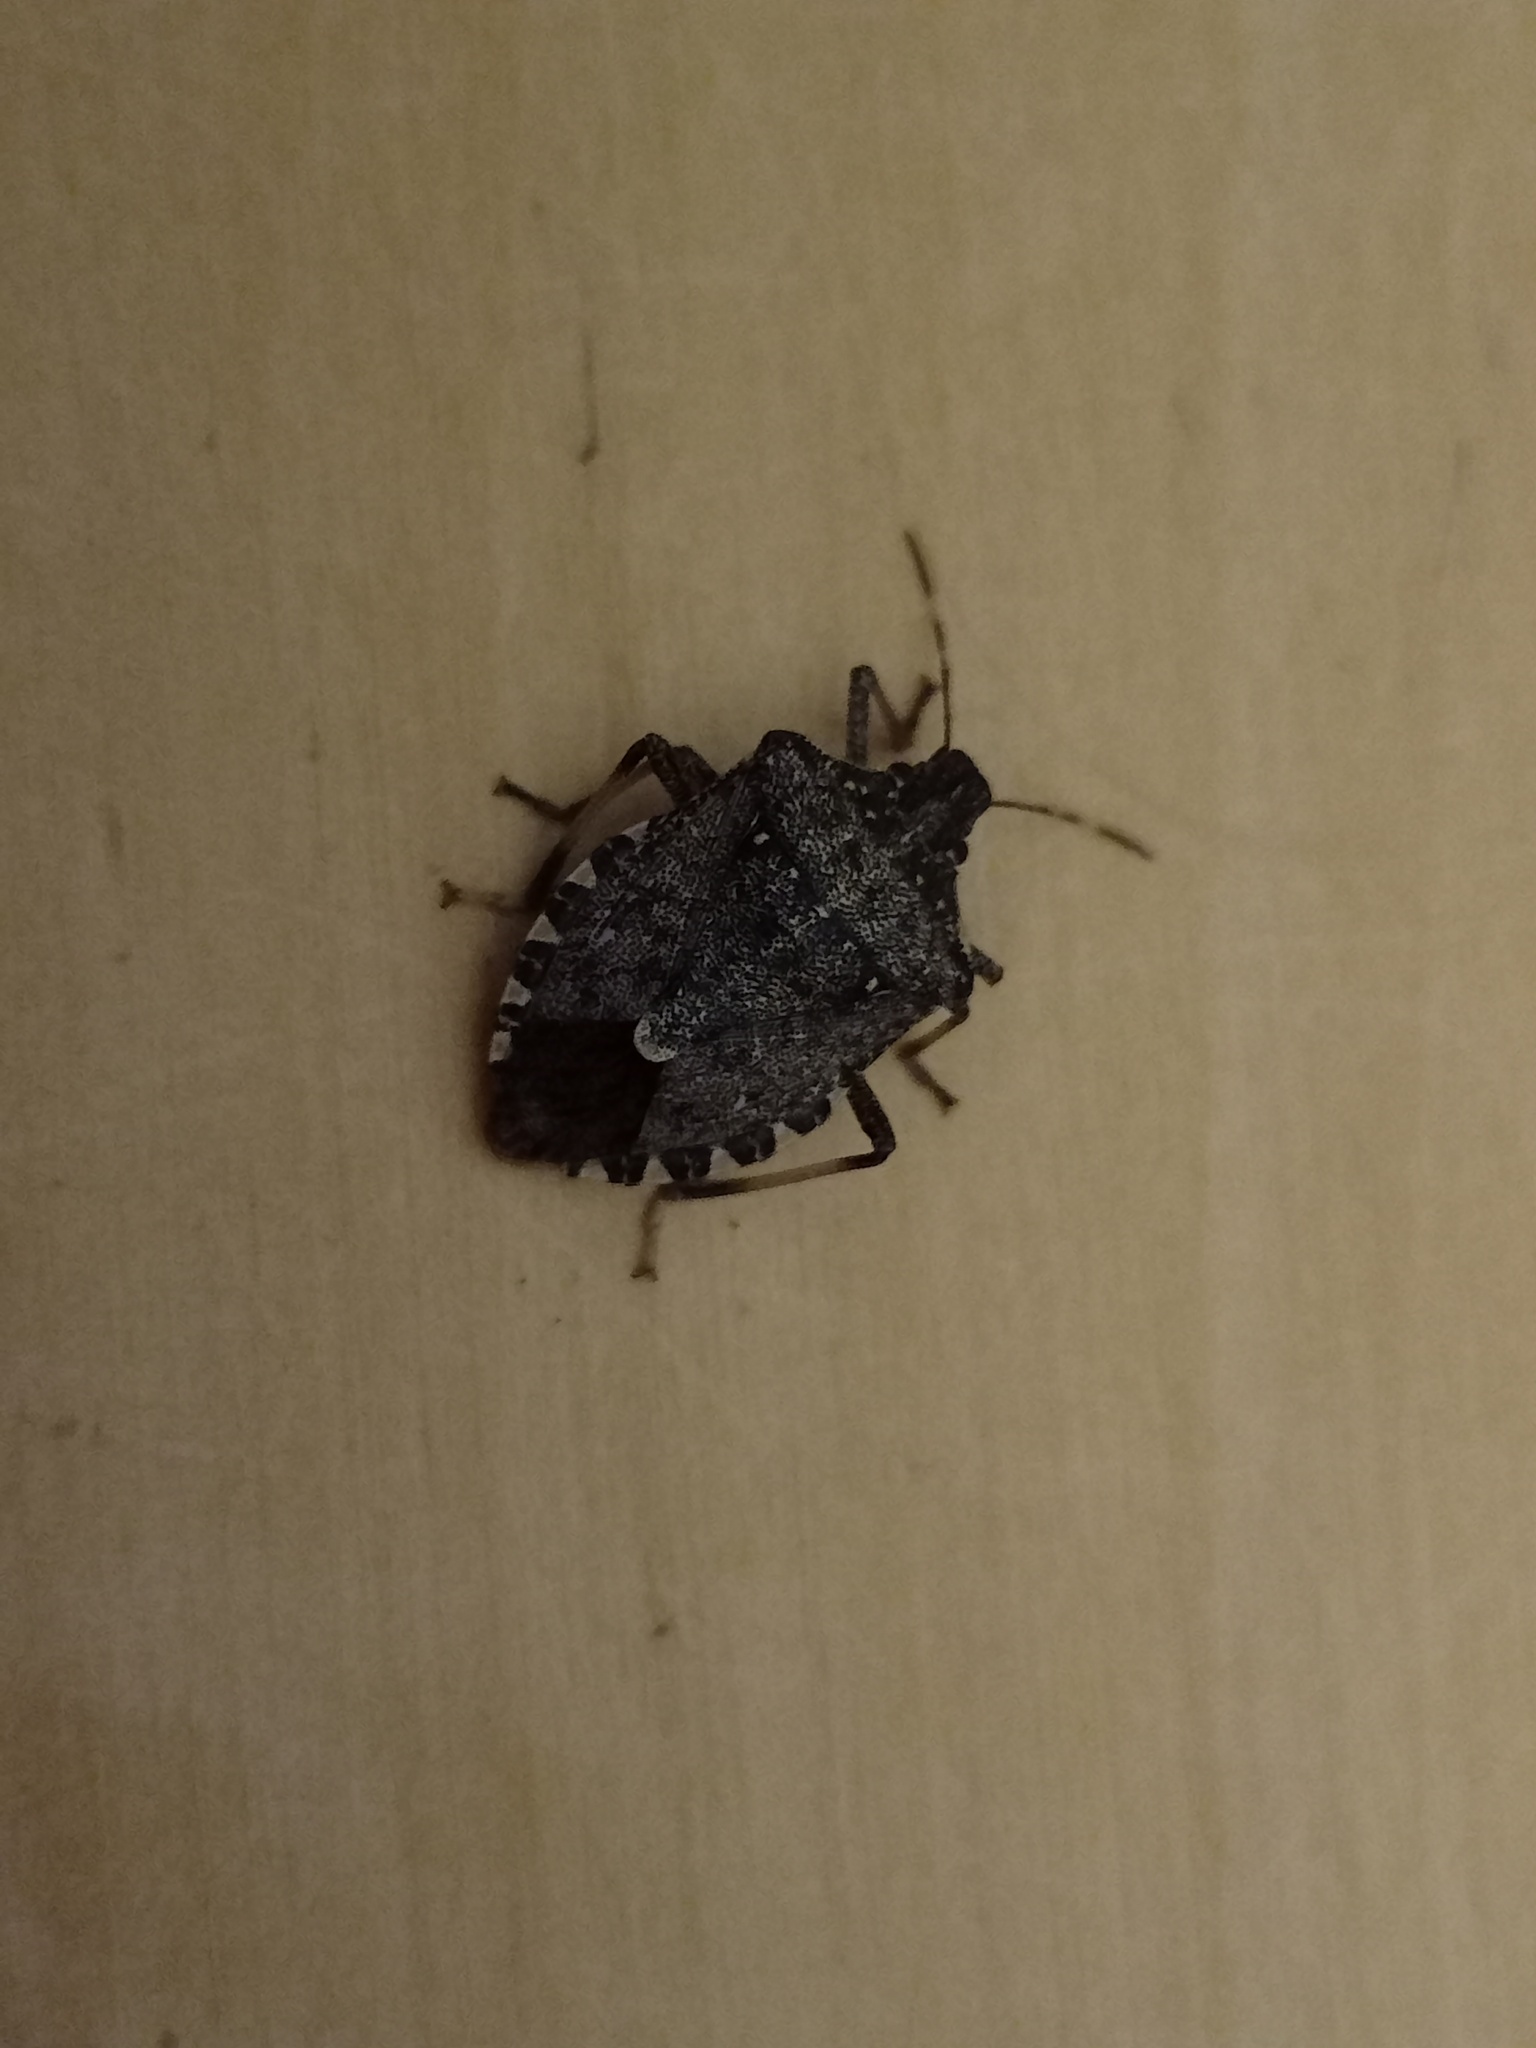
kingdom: Animalia
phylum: Arthropoda
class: Insecta
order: Hemiptera
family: Pentatomidae
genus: Halyomorpha
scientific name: Halyomorpha halys
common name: Brown marmorated stink bug
